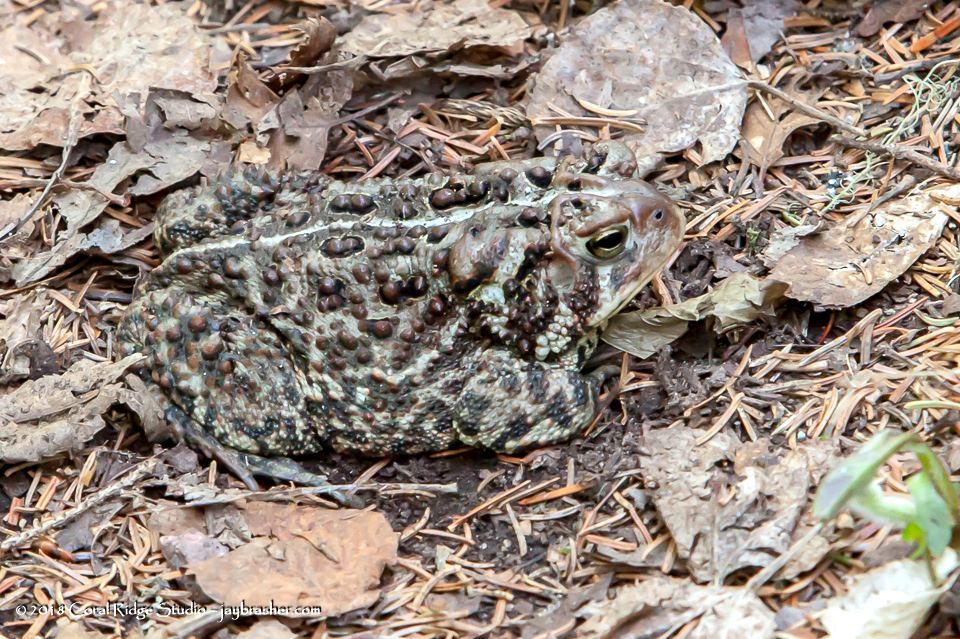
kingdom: Animalia
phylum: Chordata
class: Amphibia
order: Anura
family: Bufonidae
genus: Anaxyrus
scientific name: Anaxyrus americanus
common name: American toad
